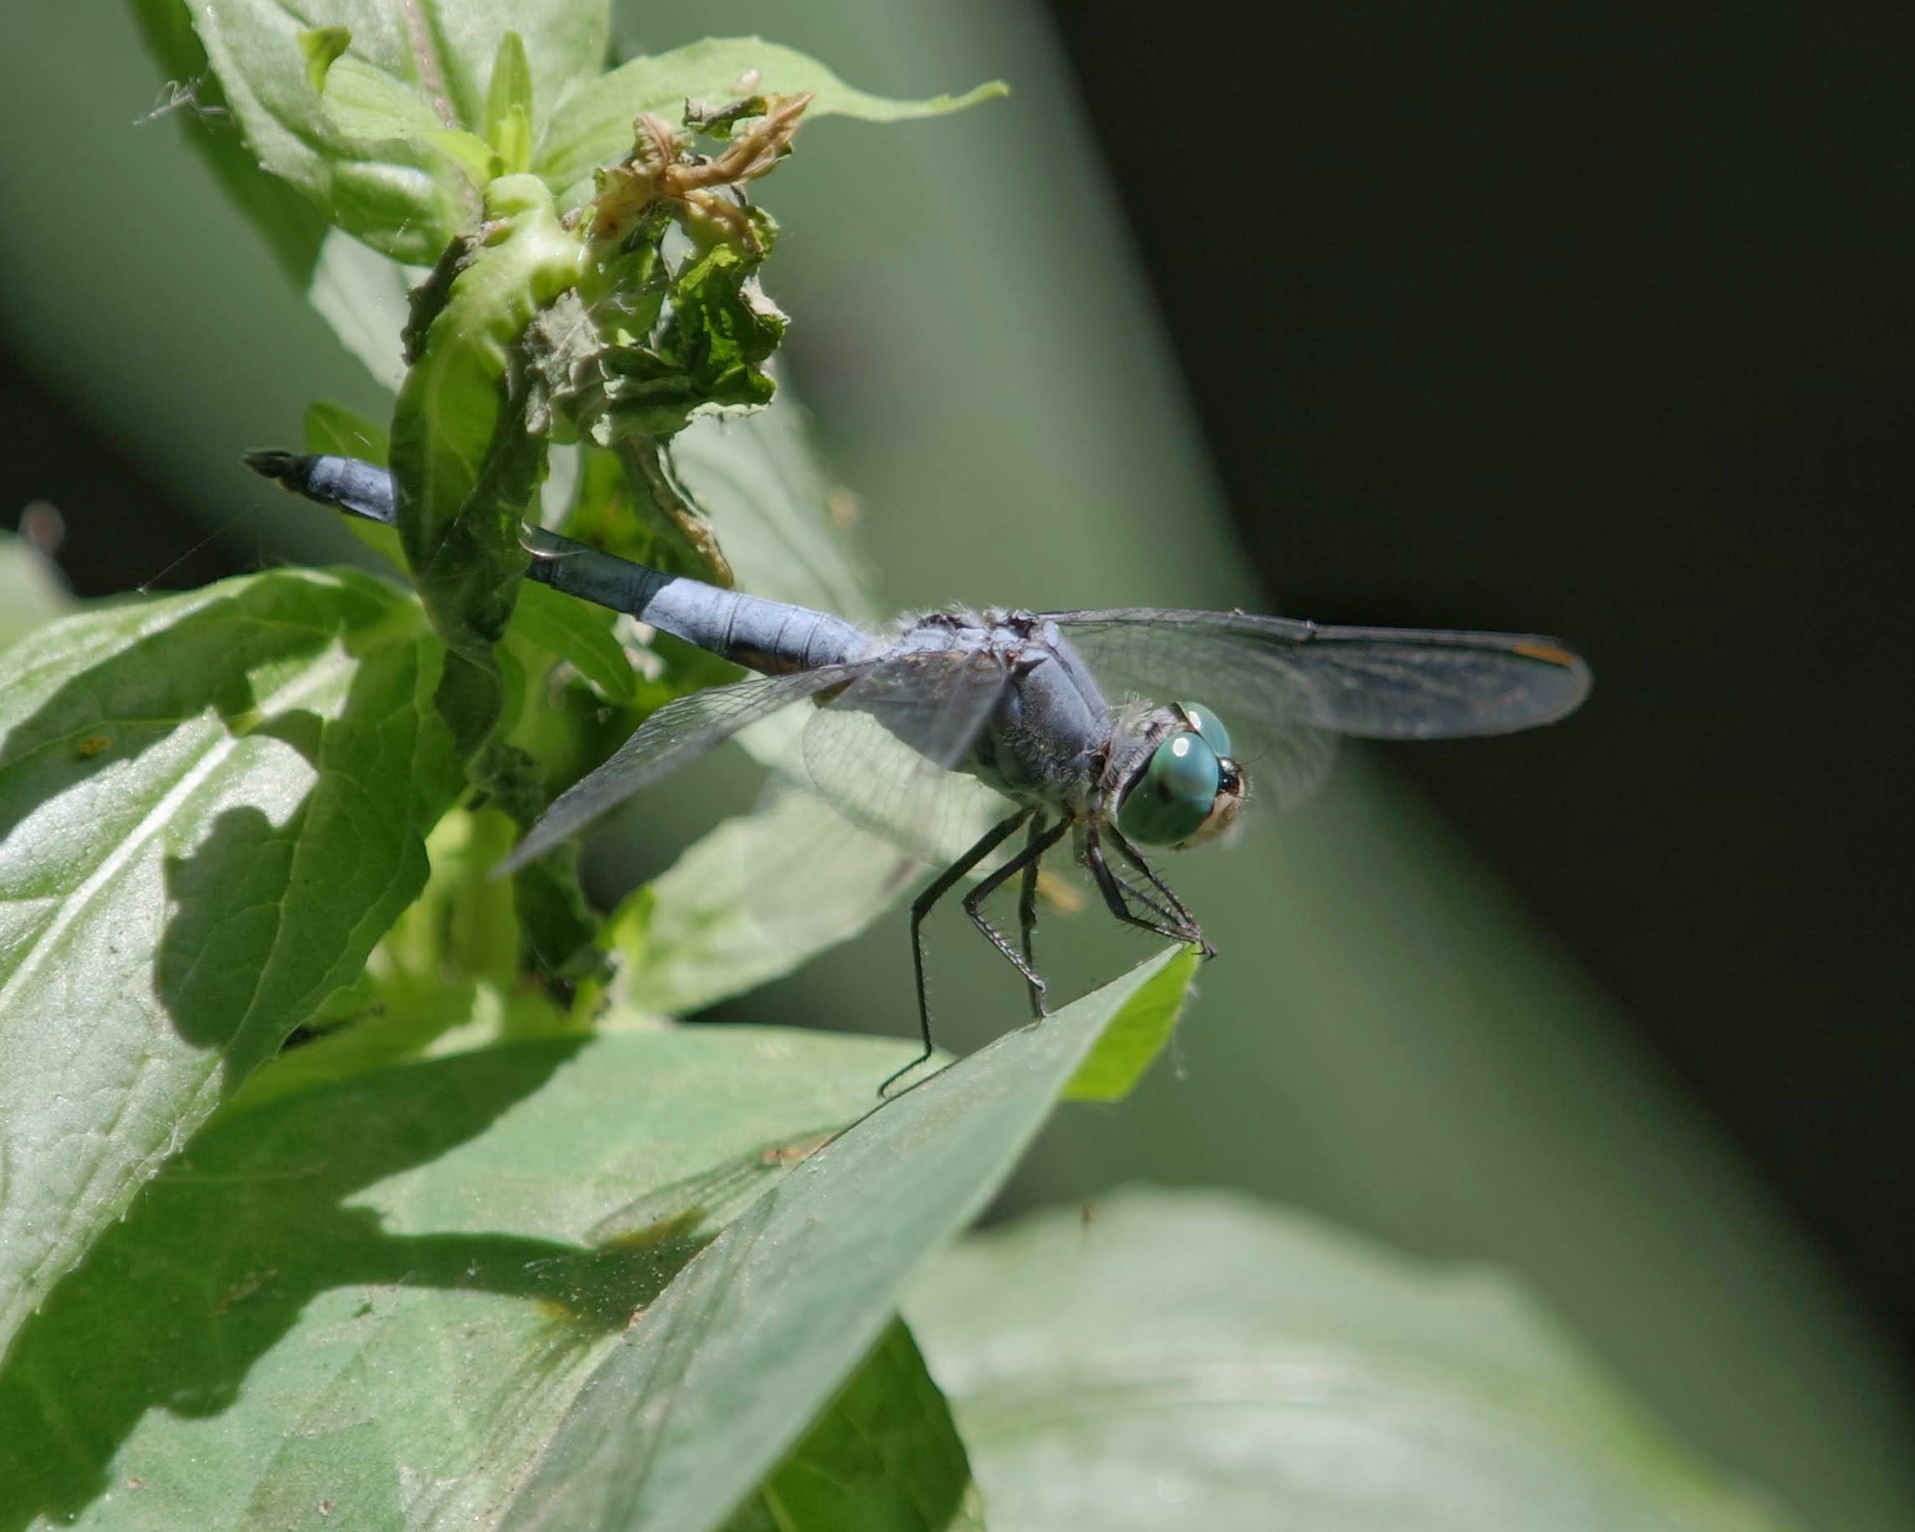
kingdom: Animalia
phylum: Arthropoda
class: Insecta
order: Odonata
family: Libellulidae
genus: Pachydiplax
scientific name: Pachydiplax longipennis
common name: Blue dasher
